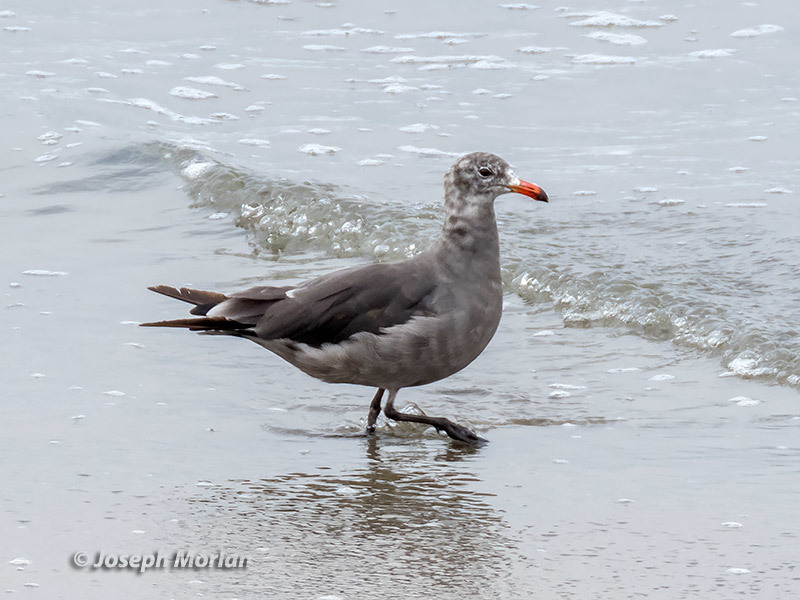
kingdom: Animalia
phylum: Chordata
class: Aves
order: Charadriiformes
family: Laridae
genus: Larus
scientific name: Larus heermanni
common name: Heermann's gull
